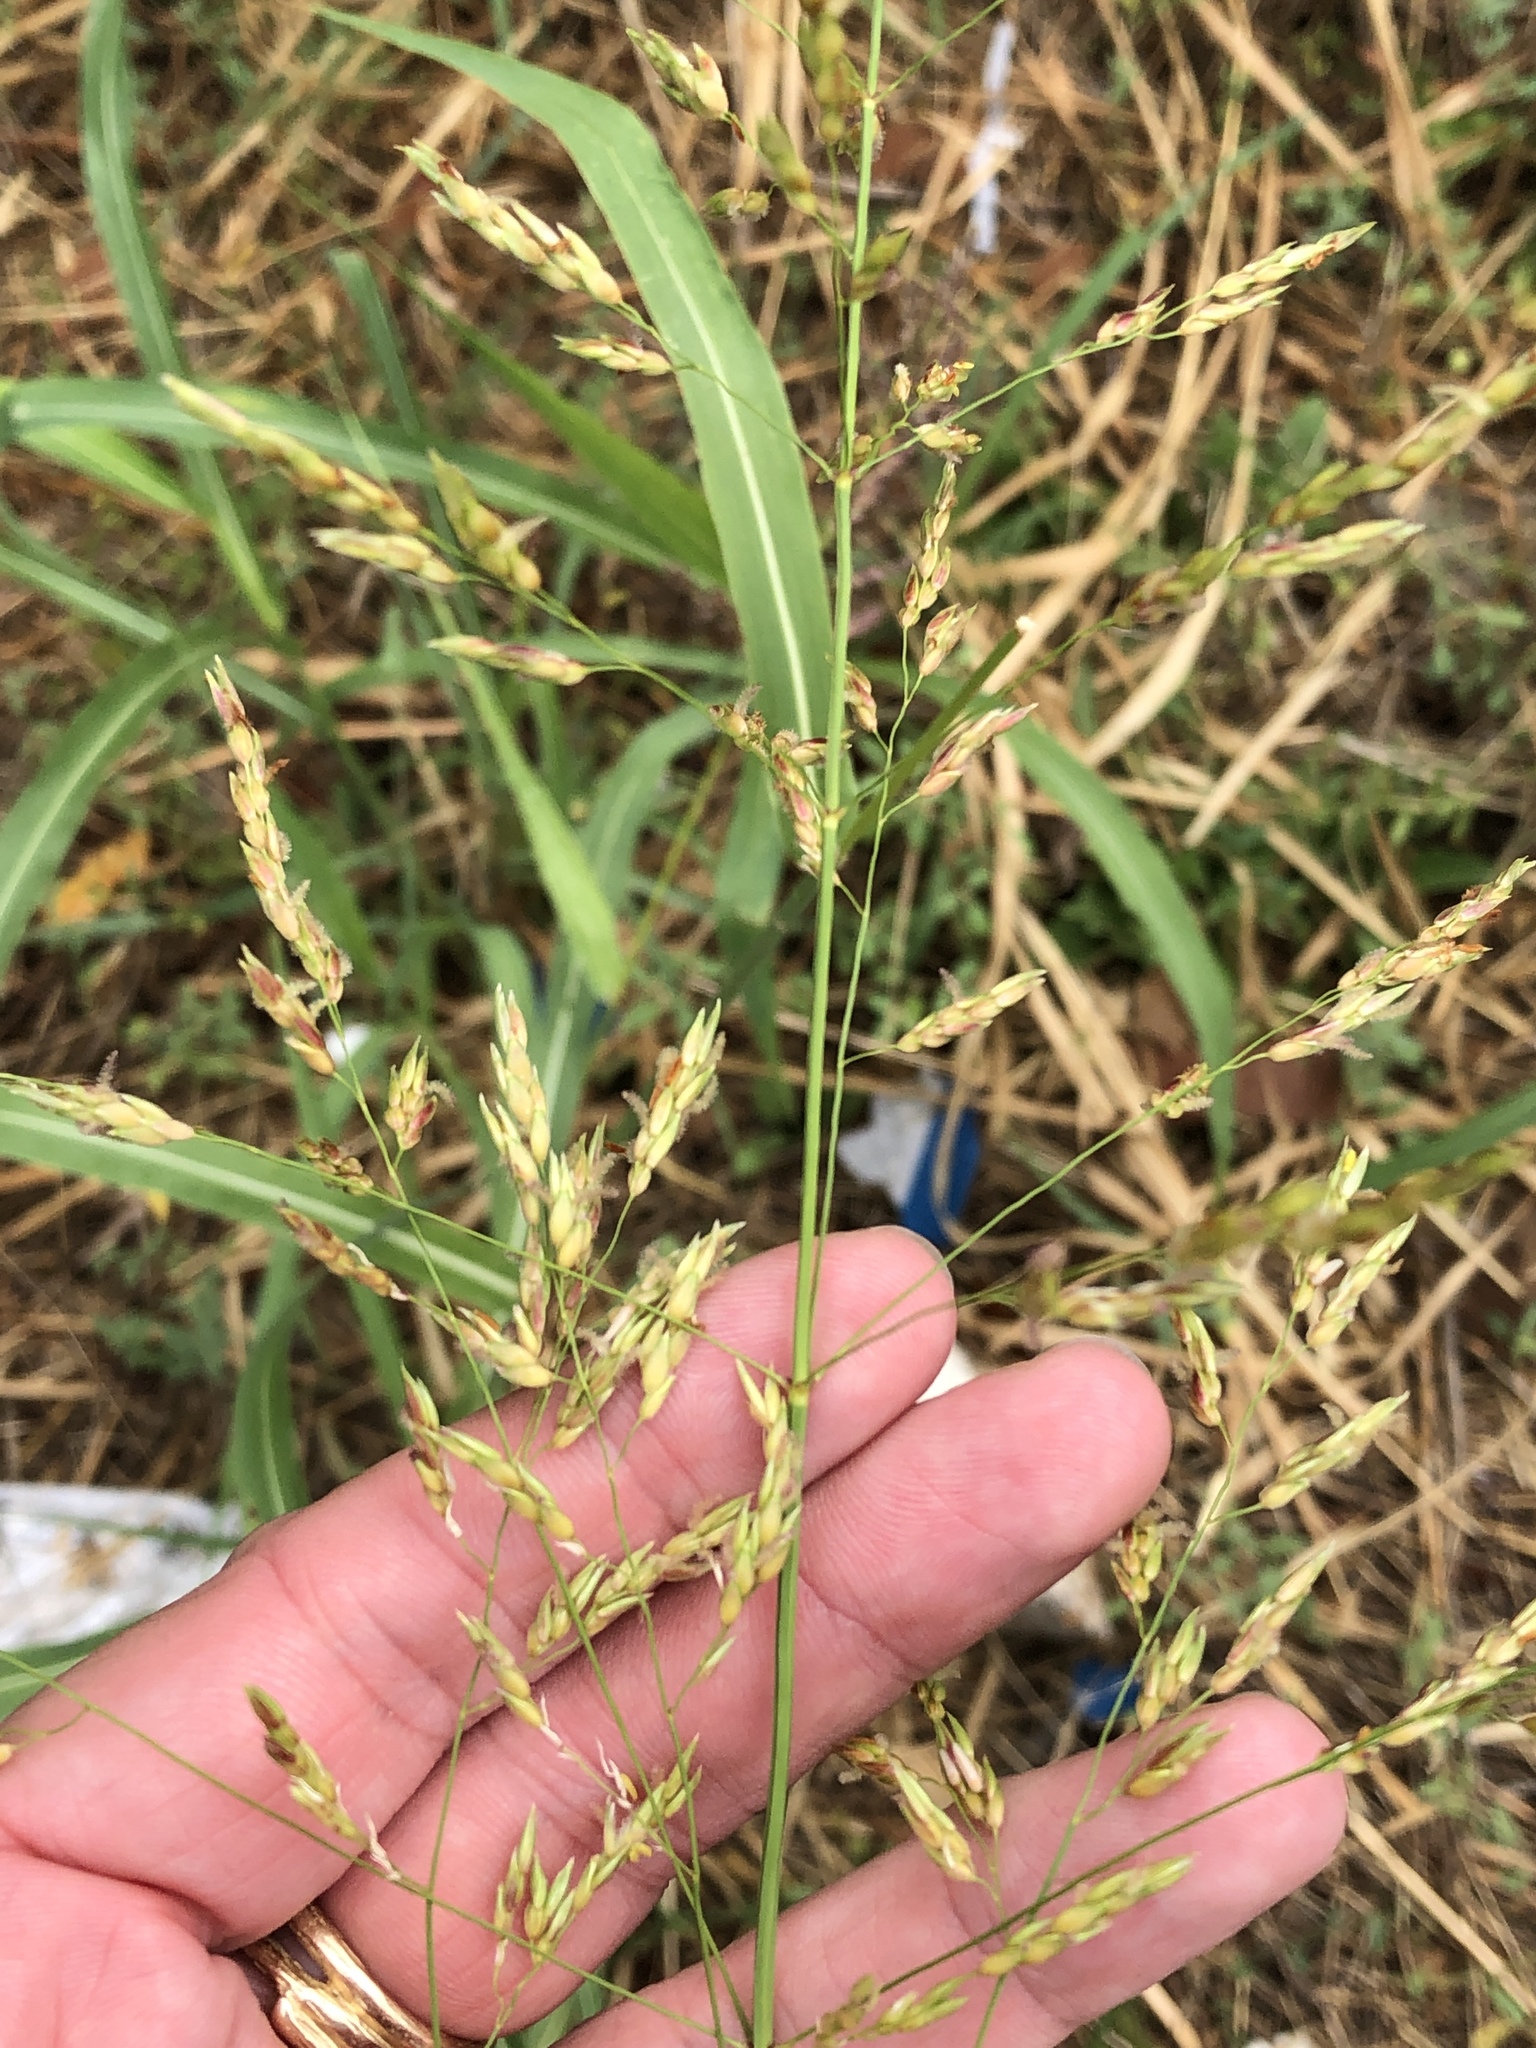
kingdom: Plantae
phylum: Tracheophyta
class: Liliopsida
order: Poales
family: Poaceae
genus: Sorghum
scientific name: Sorghum halepense
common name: Johnson-grass
